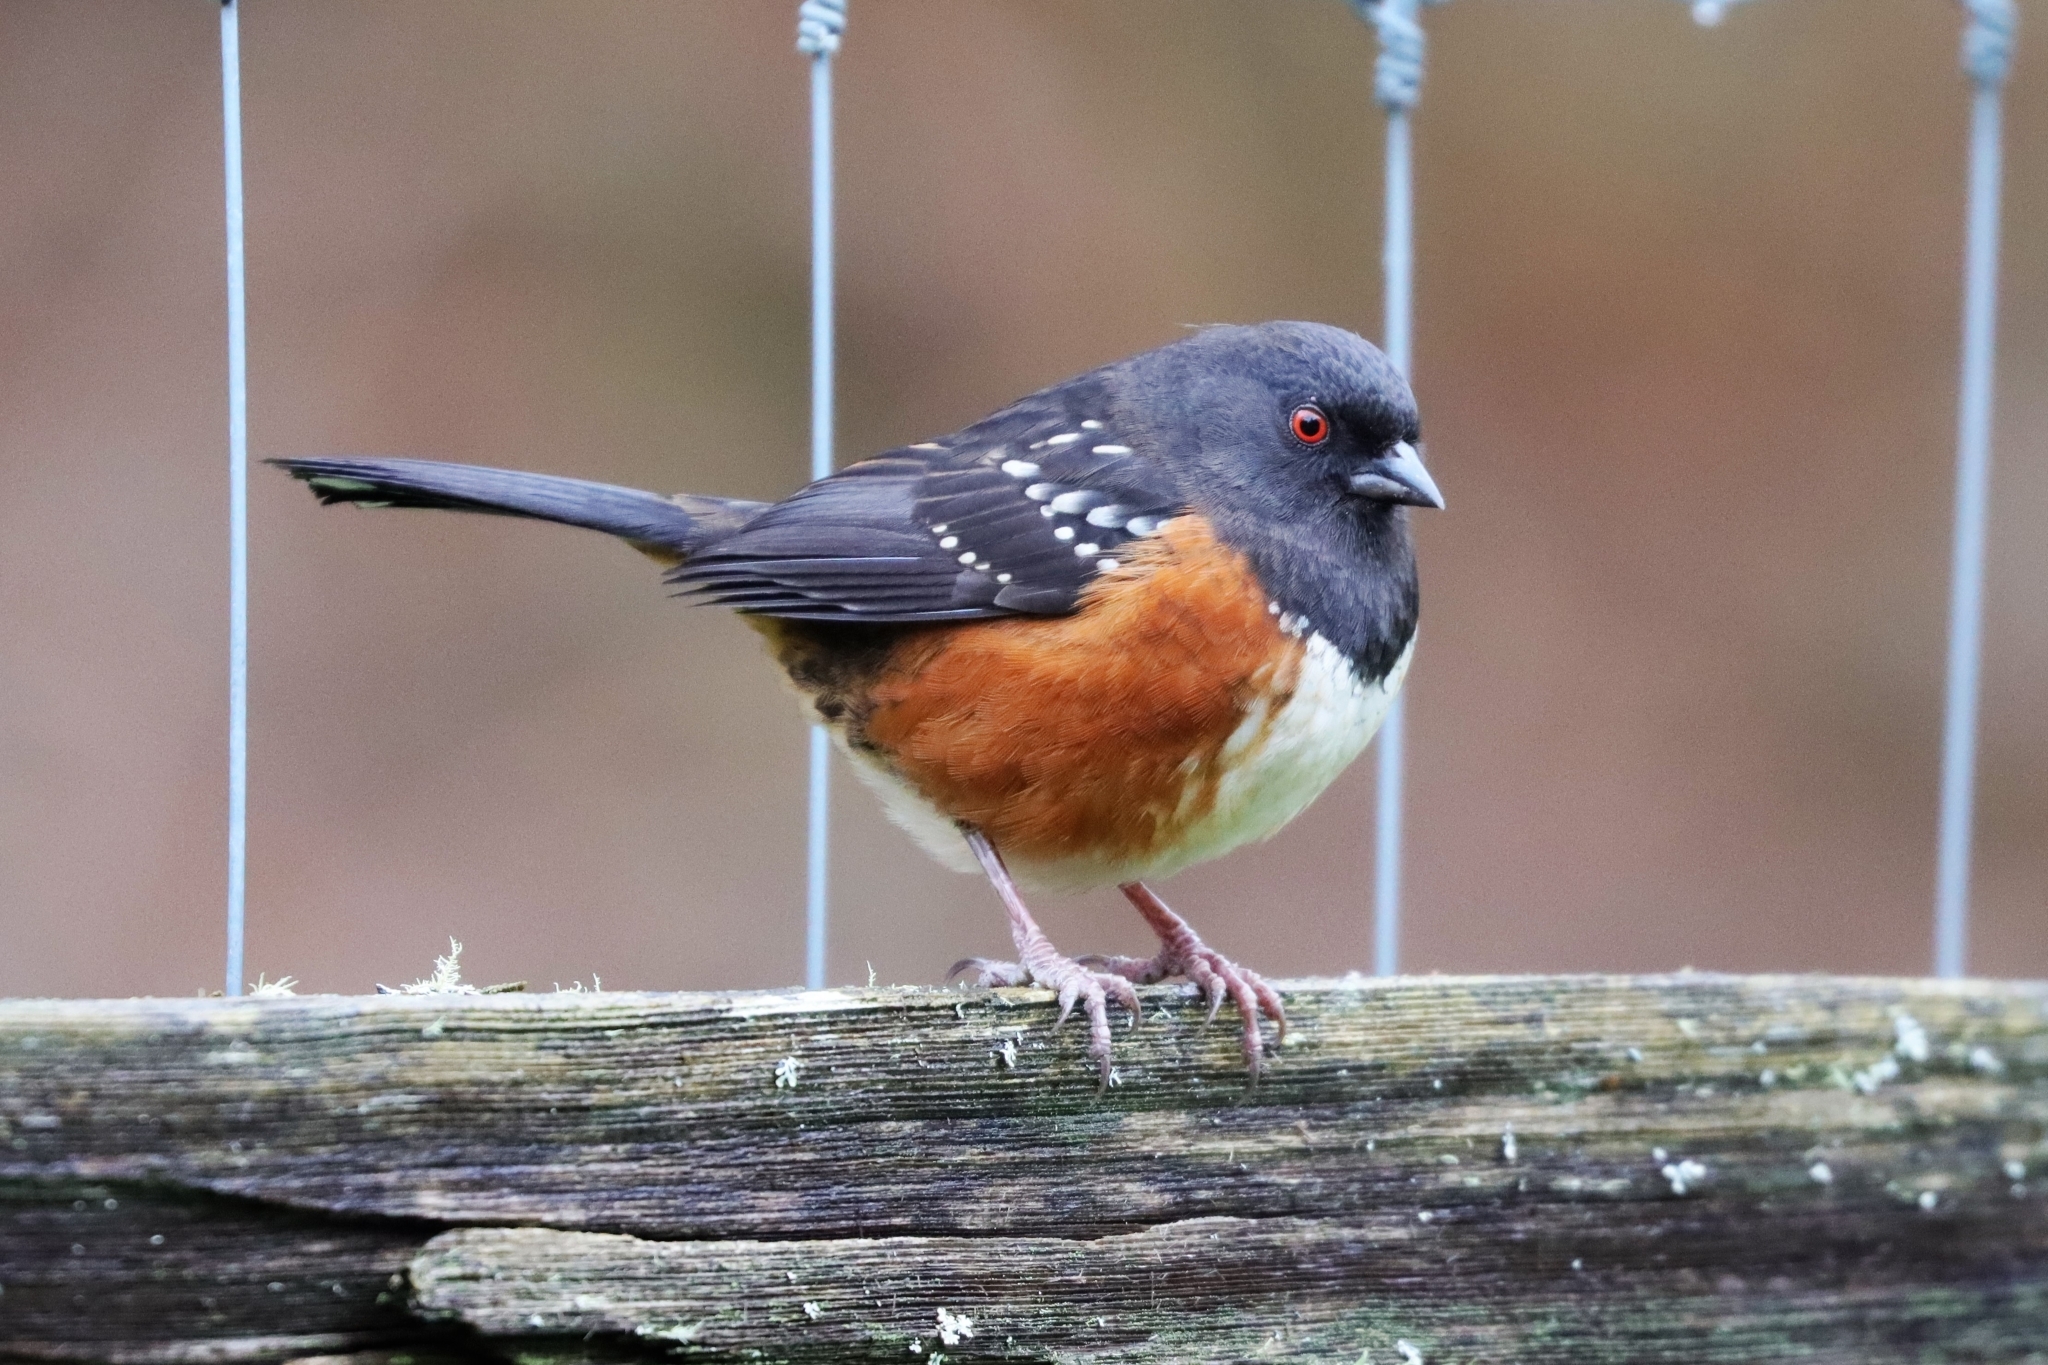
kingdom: Animalia
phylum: Chordata
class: Aves
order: Passeriformes
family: Passerellidae
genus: Pipilo
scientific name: Pipilo maculatus
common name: Spotted towhee
